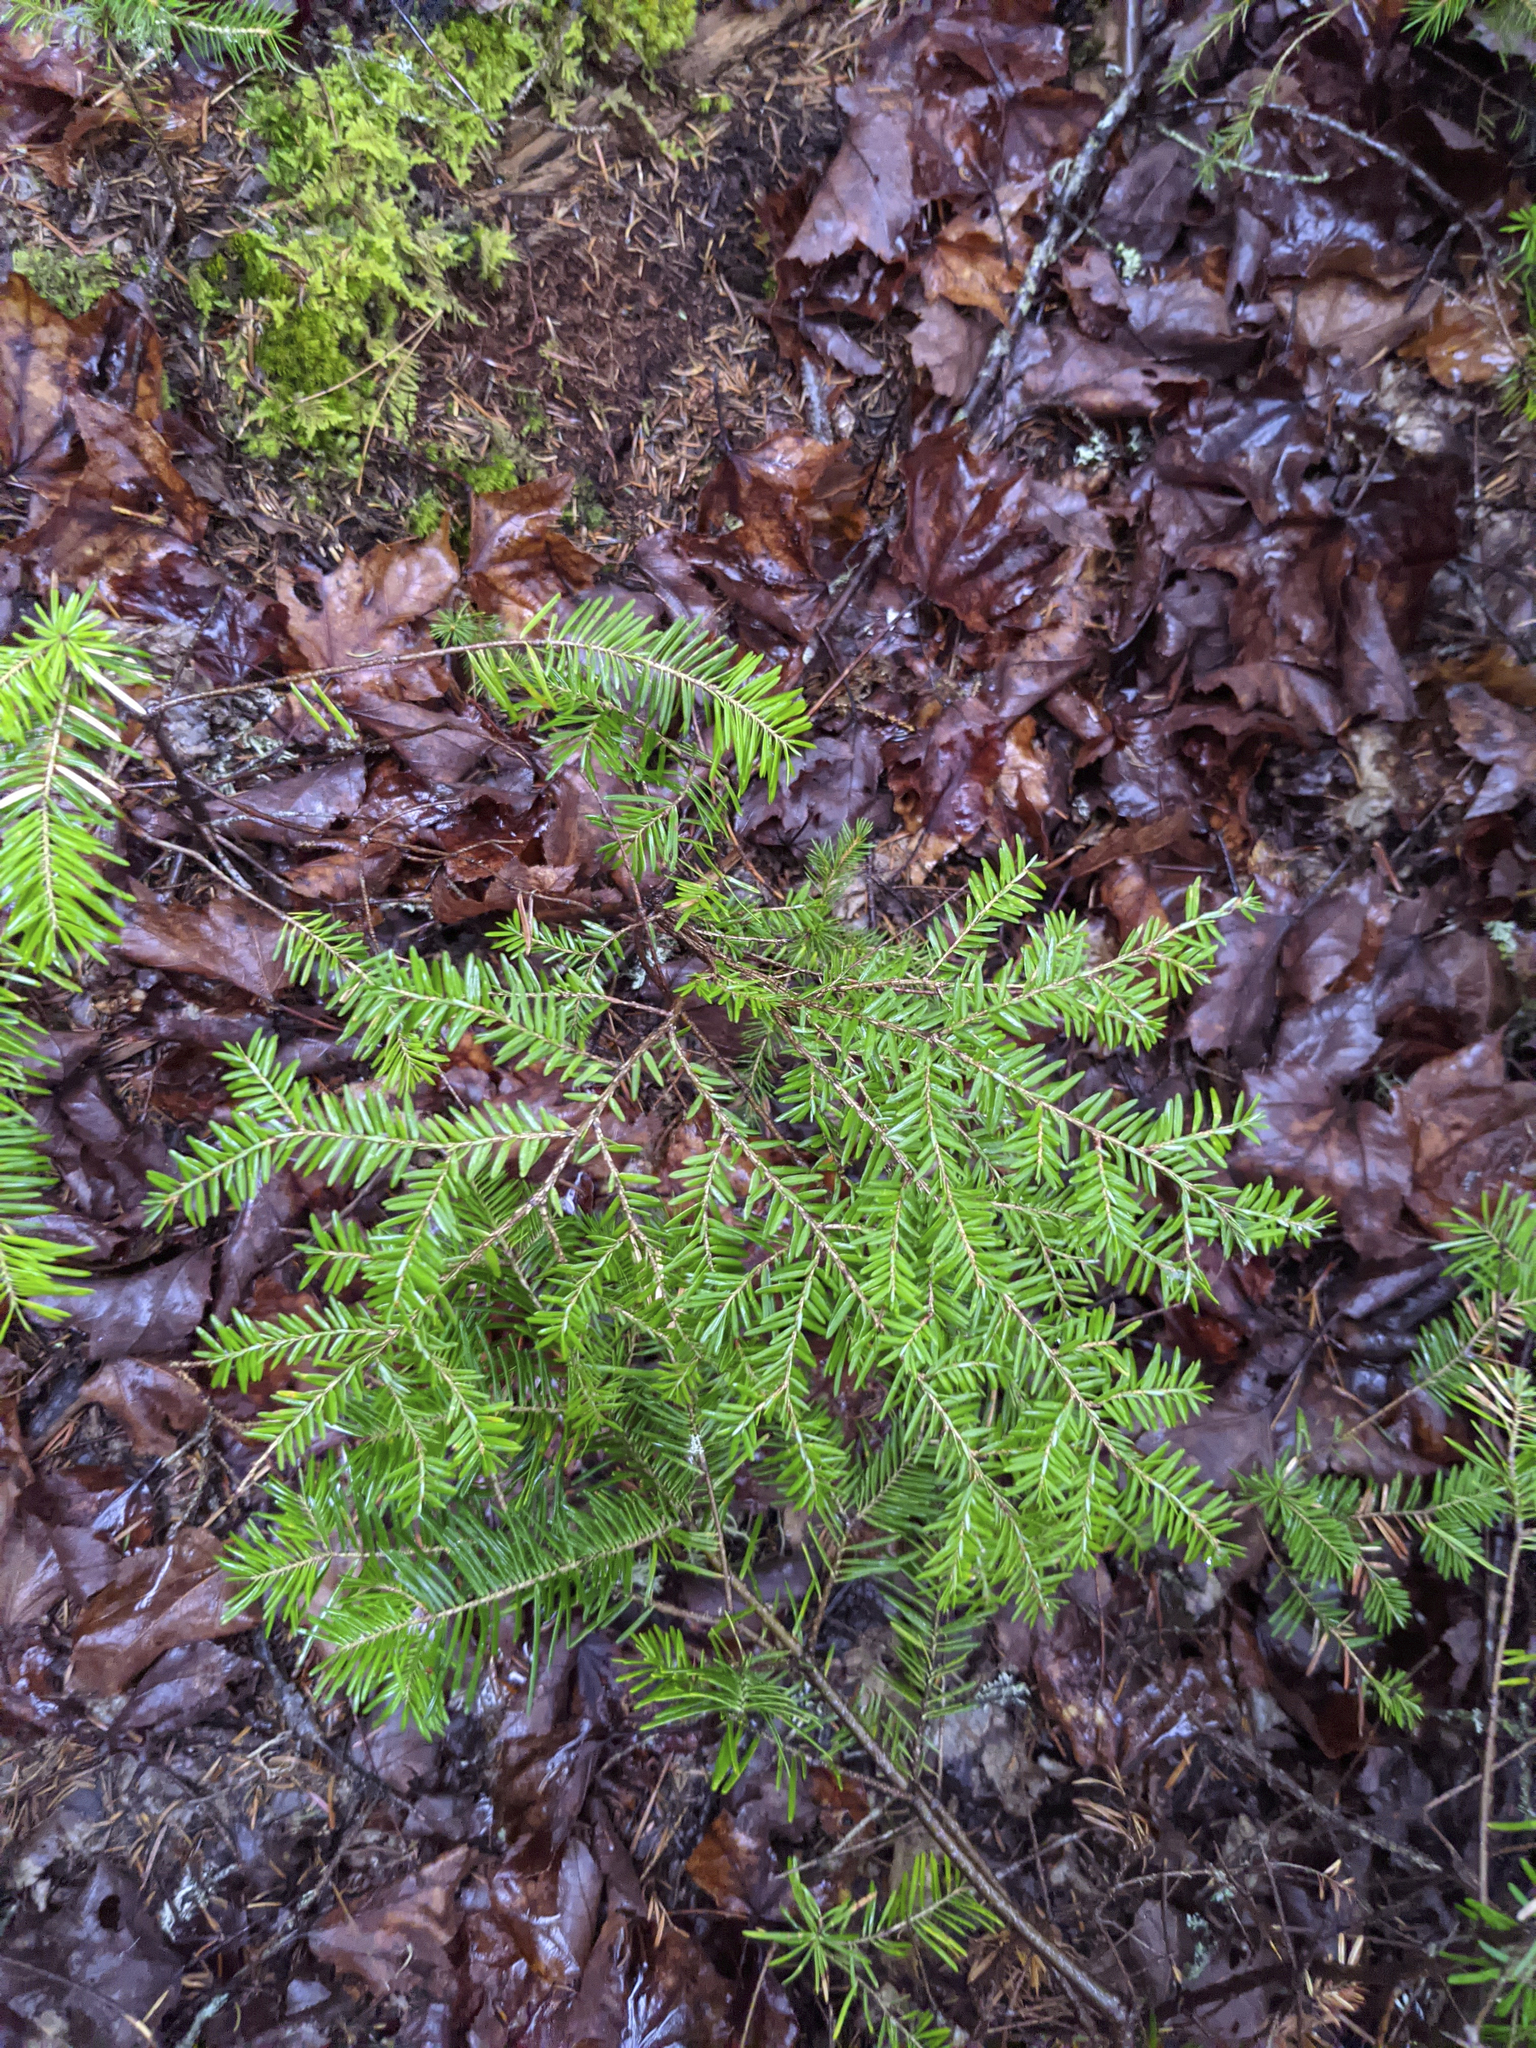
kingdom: Plantae
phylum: Tracheophyta
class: Pinopsida
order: Pinales
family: Pinaceae
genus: Tsuga
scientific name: Tsuga canadensis
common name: Eastern hemlock
